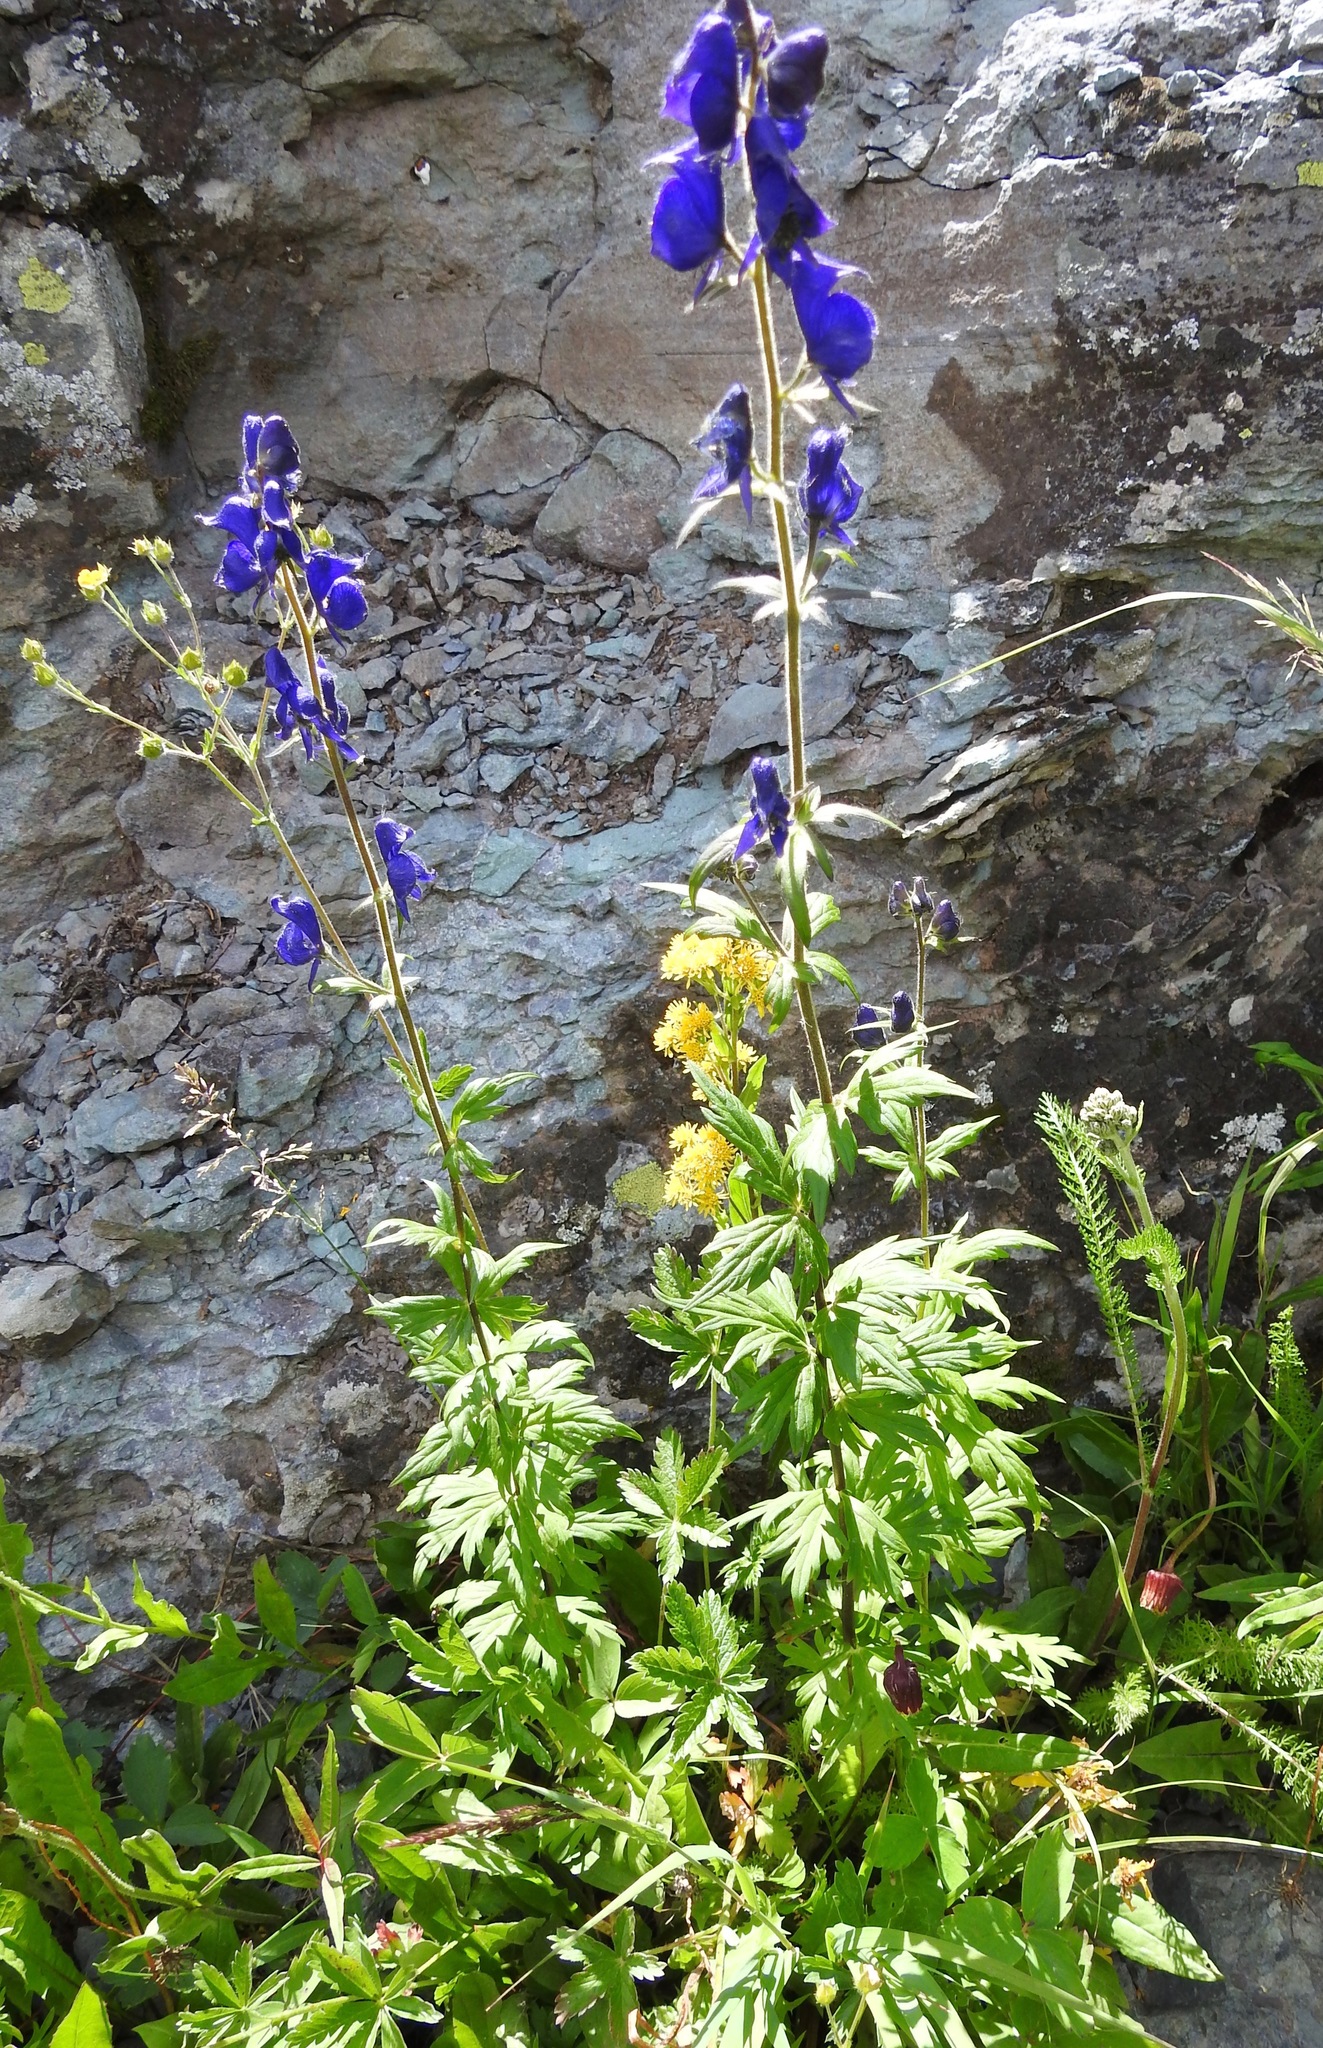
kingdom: Plantae
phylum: Tracheophyta
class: Magnoliopsida
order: Ranunculales
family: Ranunculaceae
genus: Aconitum
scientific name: Aconitum columbianum
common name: Columbia aconite
